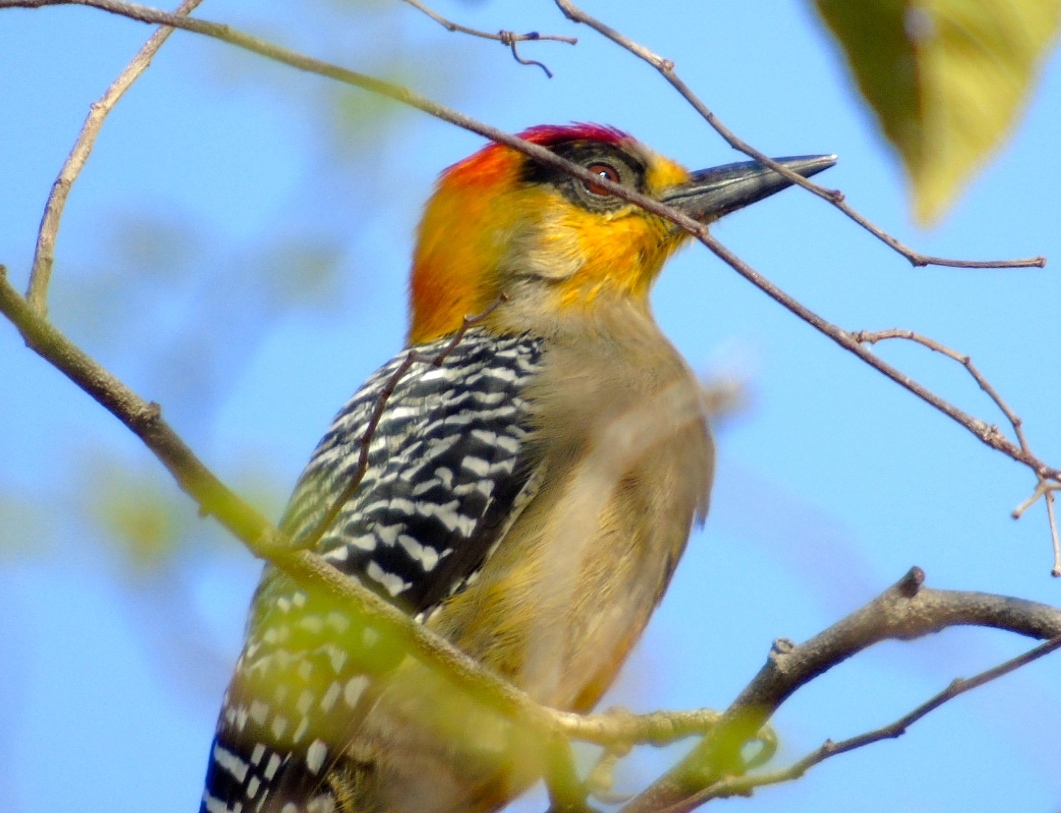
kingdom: Animalia
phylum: Chordata
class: Aves
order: Piciformes
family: Picidae
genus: Melanerpes
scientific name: Melanerpes chrysogenys
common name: Golden-cheeked woodpecker
